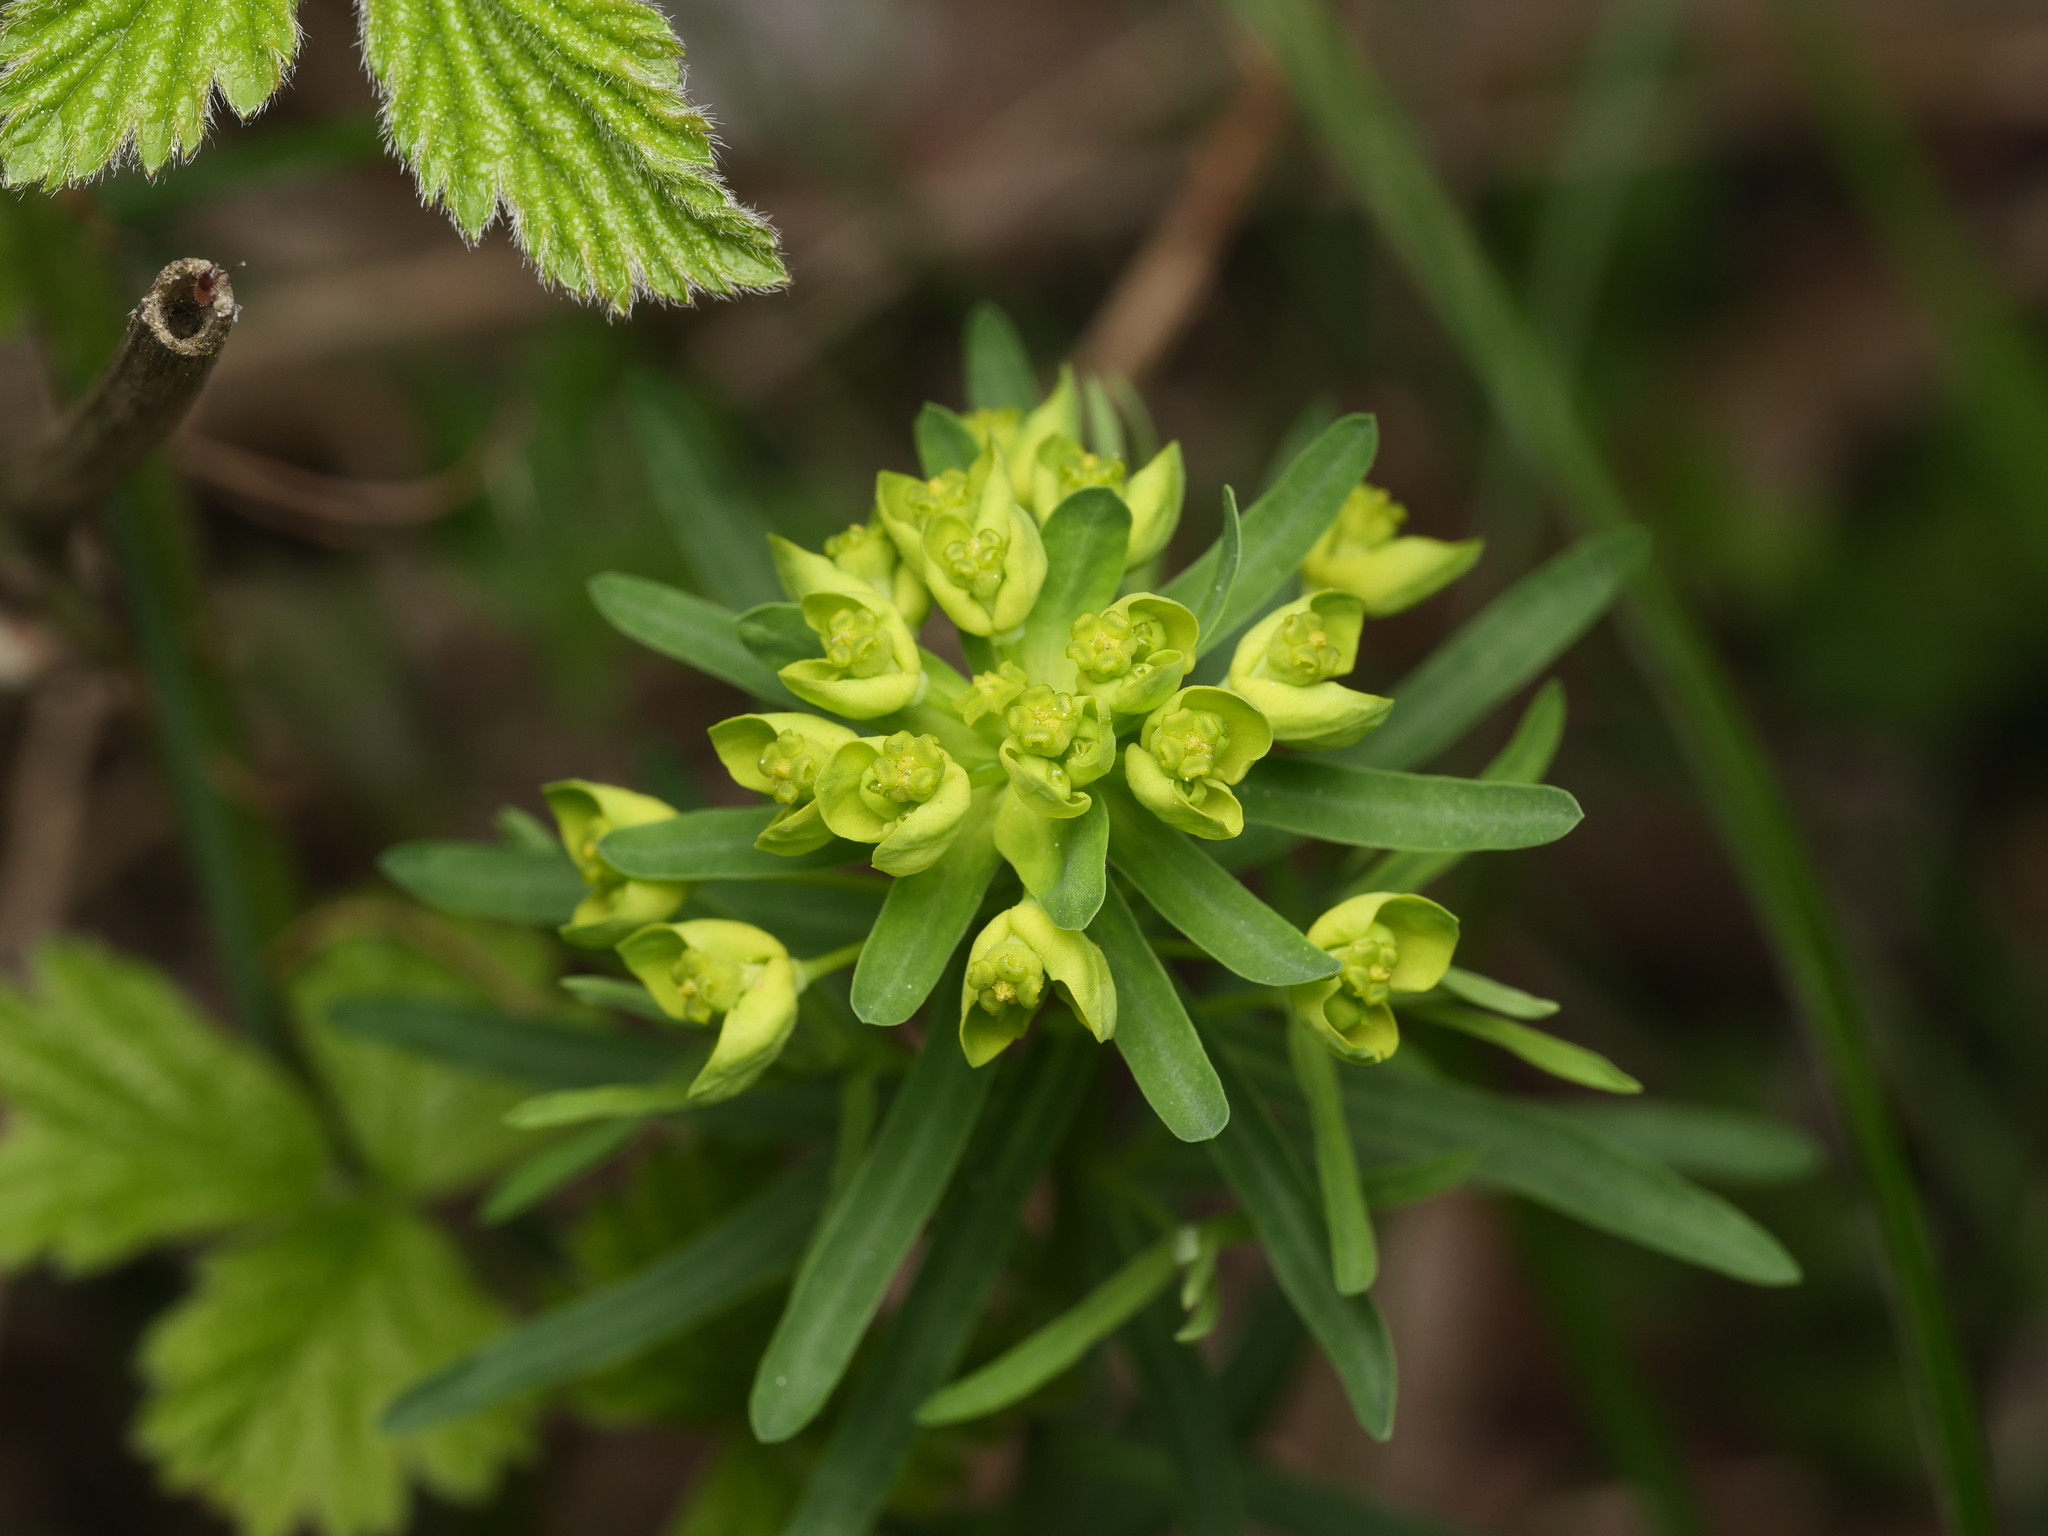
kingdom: Plantae
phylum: Tracheophyta
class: Magnoliopsida
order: Malpighiales
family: Euphorbiaceae
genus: Euphorbia
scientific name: Euphorbia cyparissias
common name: Cypress spurge
